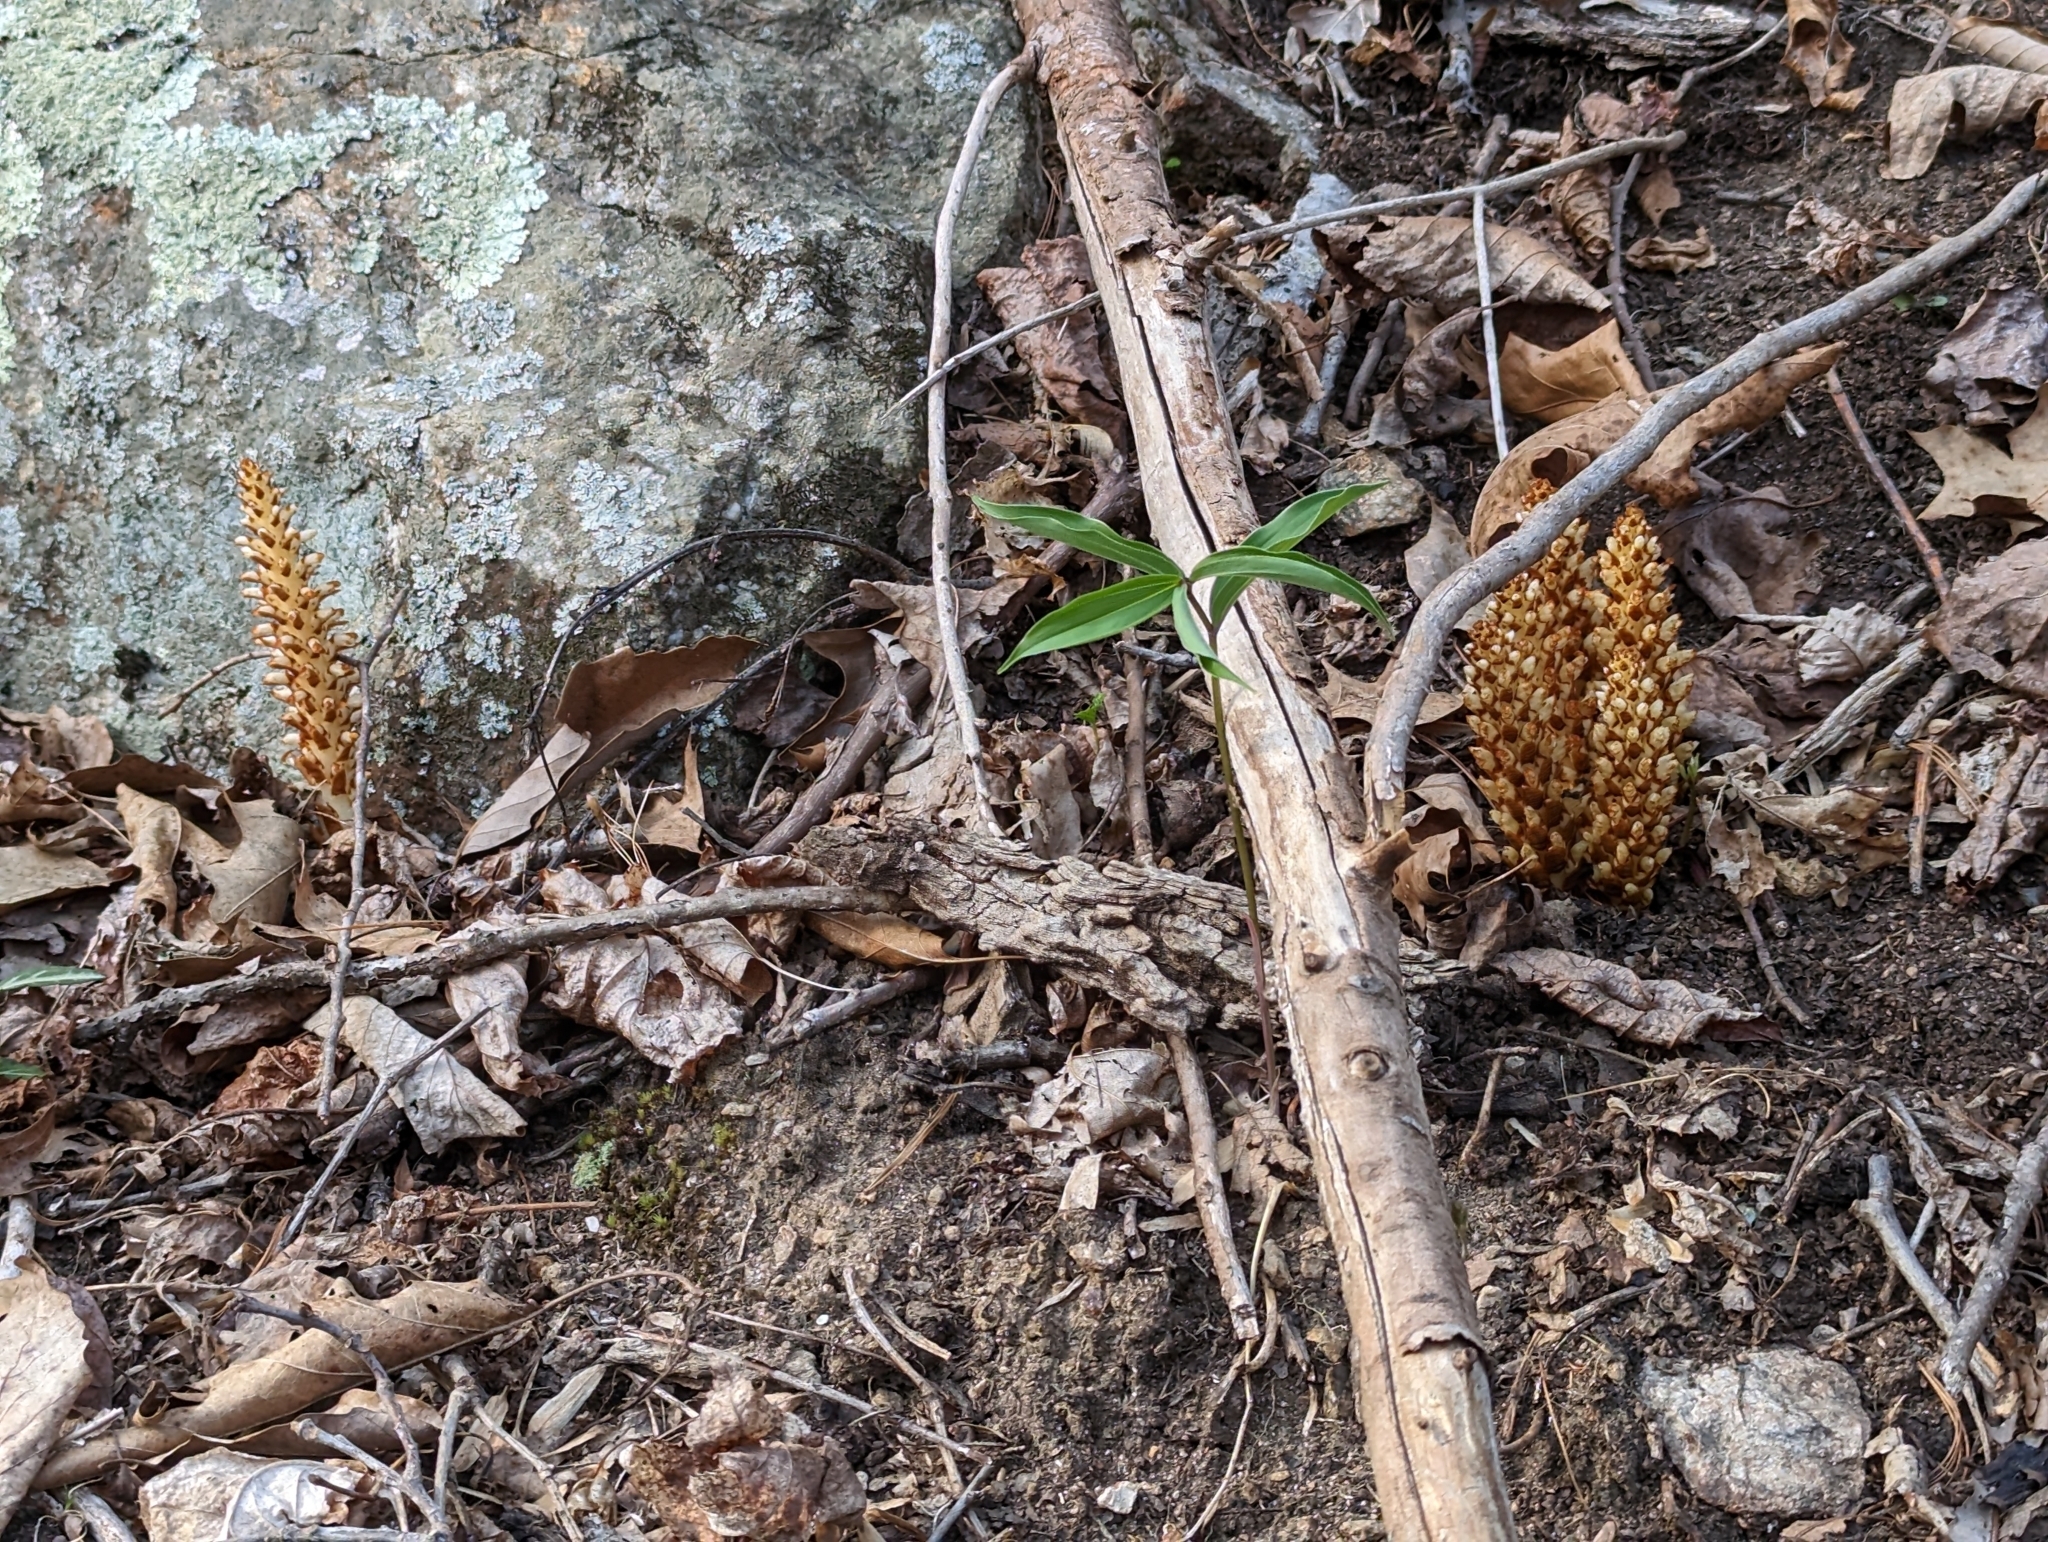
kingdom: Plantae
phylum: Tracheophyta
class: Magnoliopsida
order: Lamiales
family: Orobanchaceae
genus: Conopholis
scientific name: Conopholis americana
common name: American cancer-root
